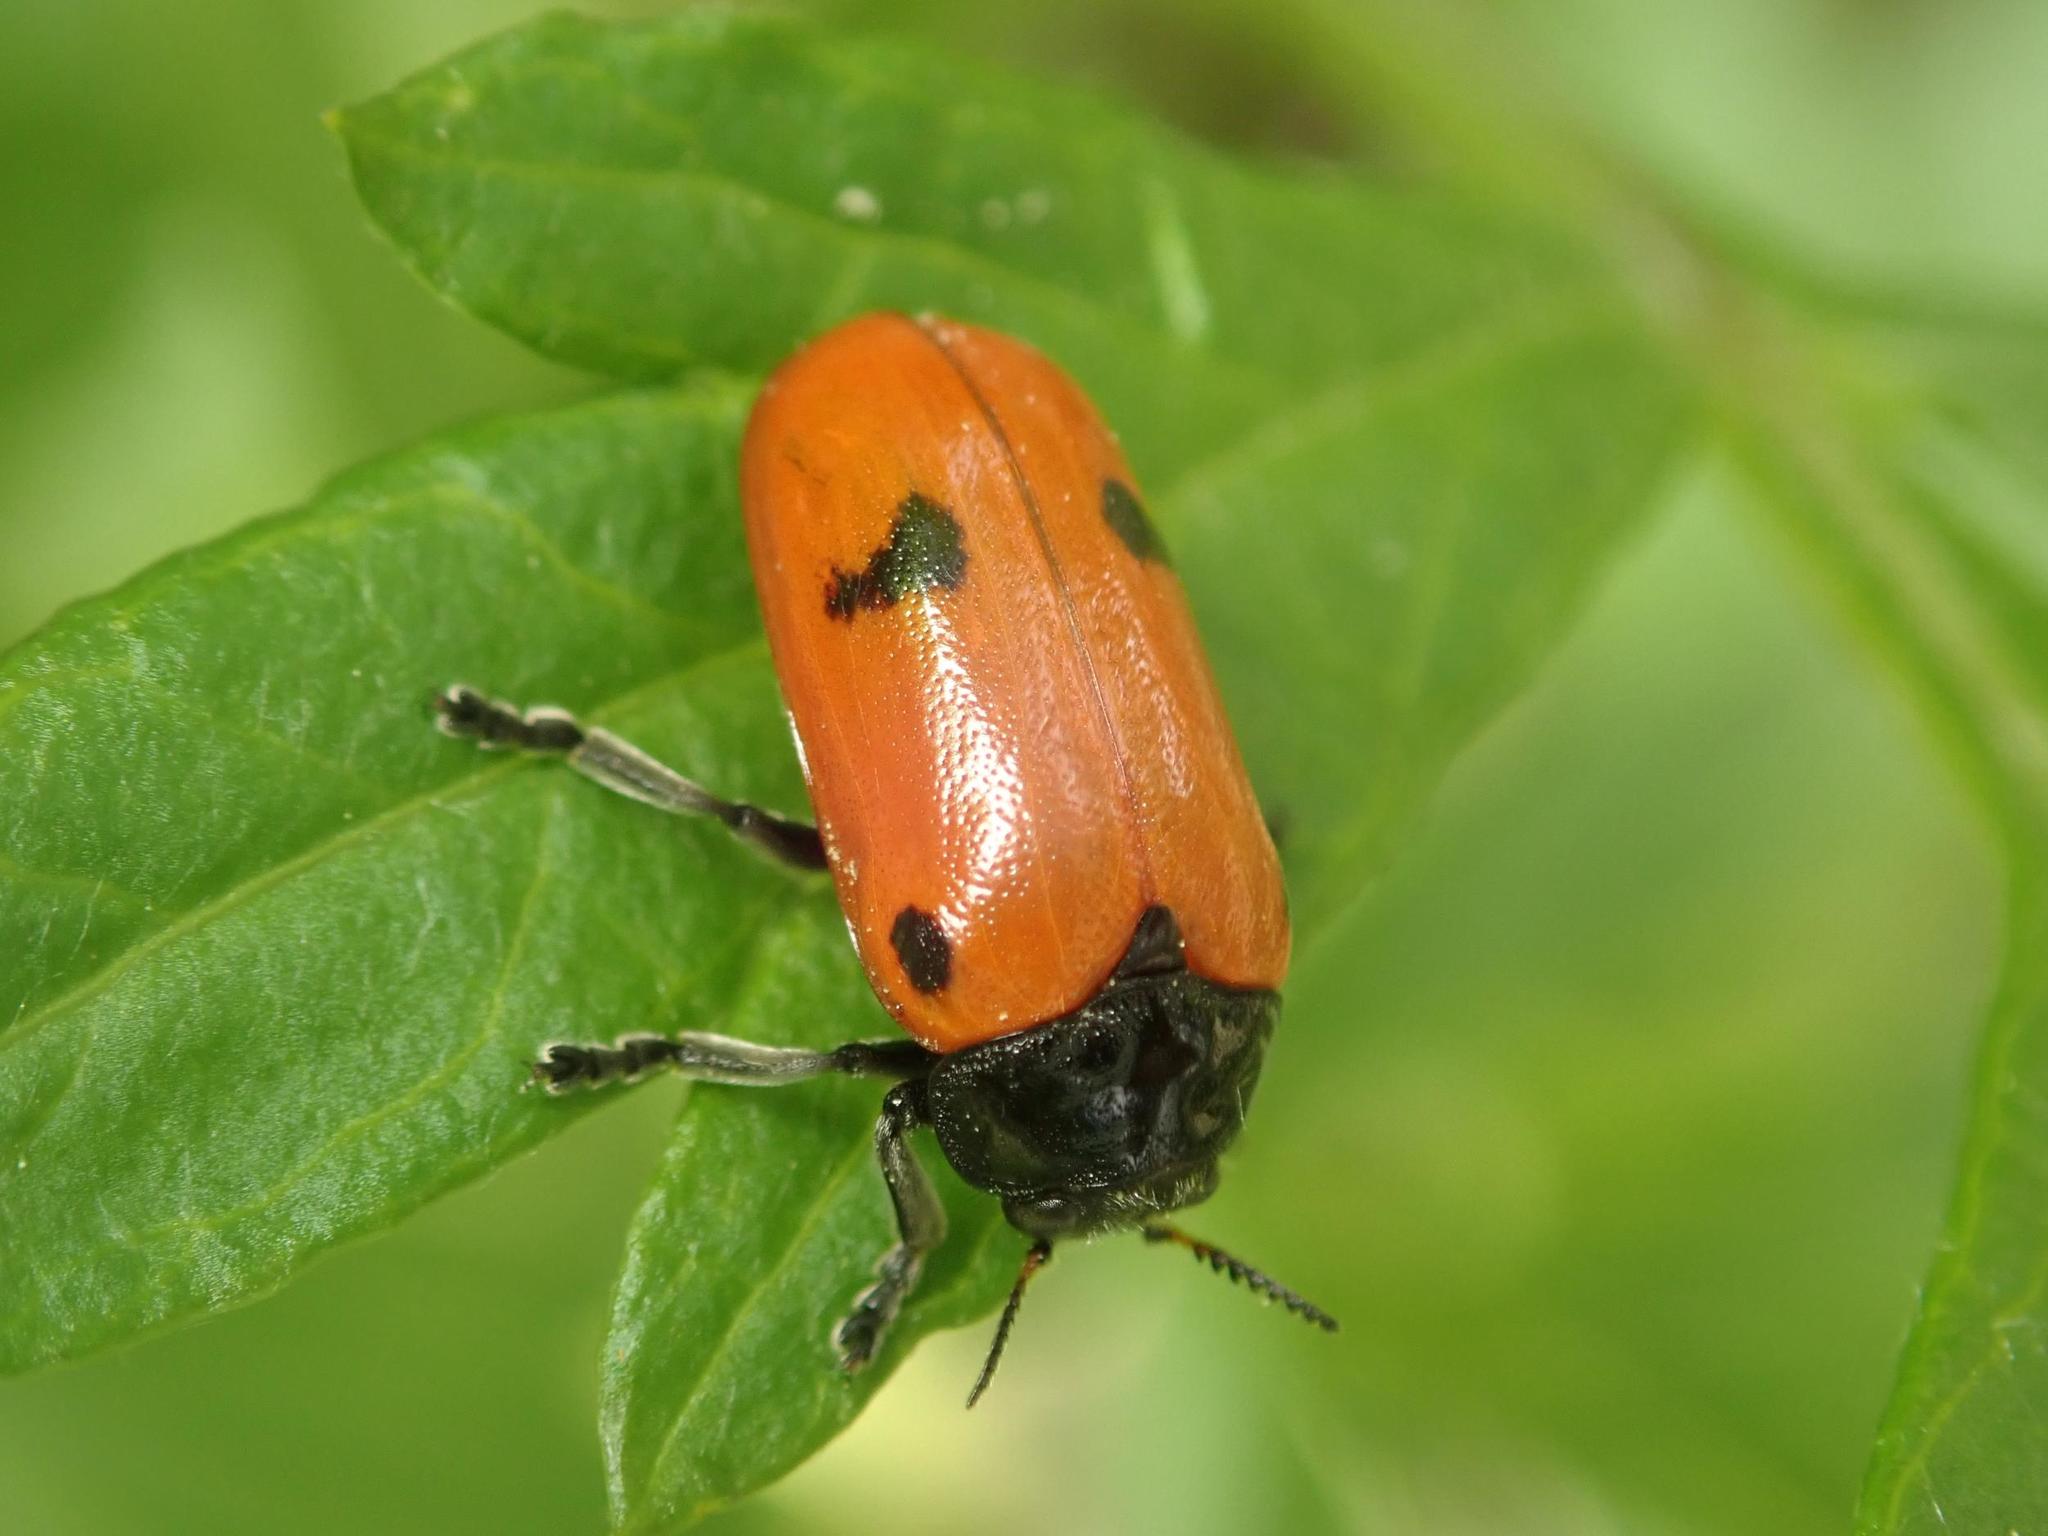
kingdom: Animalia
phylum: Arthropoda
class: Insecta
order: Coleoptera
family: Chrysomelidae
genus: Clytra
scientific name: Clytra quadripunctata
